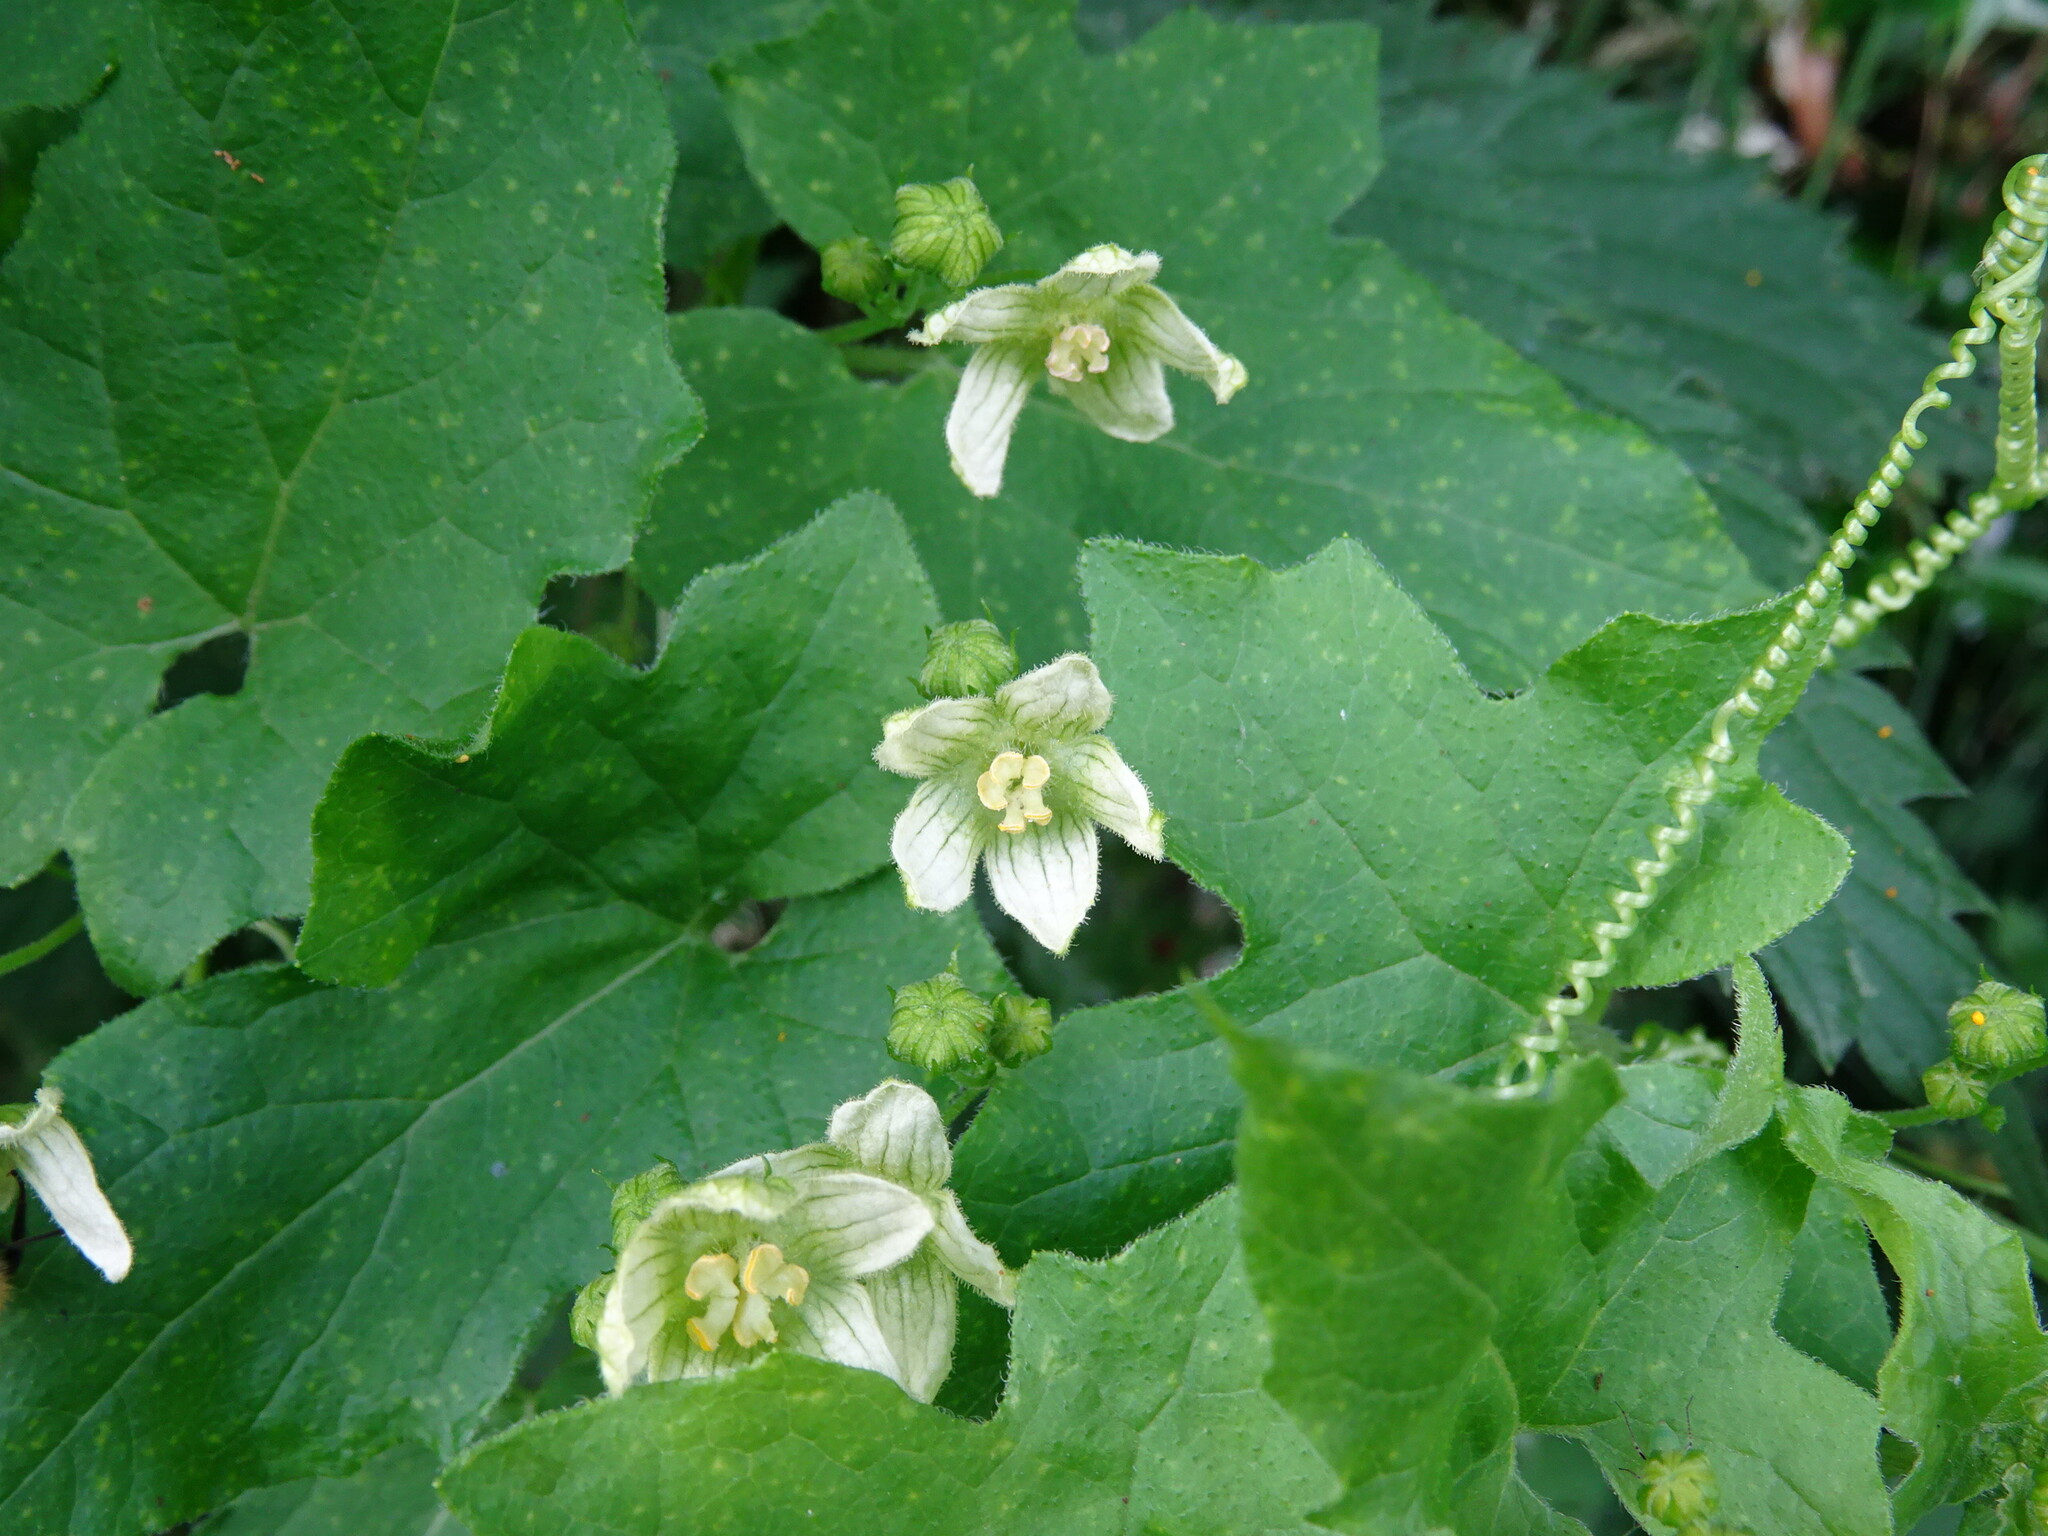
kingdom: Plantae
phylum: Tracheophyta
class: Magnoliopsida
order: Cucurbitales
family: Cucurbitaceae
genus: Bryonia
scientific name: Bryonia cretica
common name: Cretan bryony
